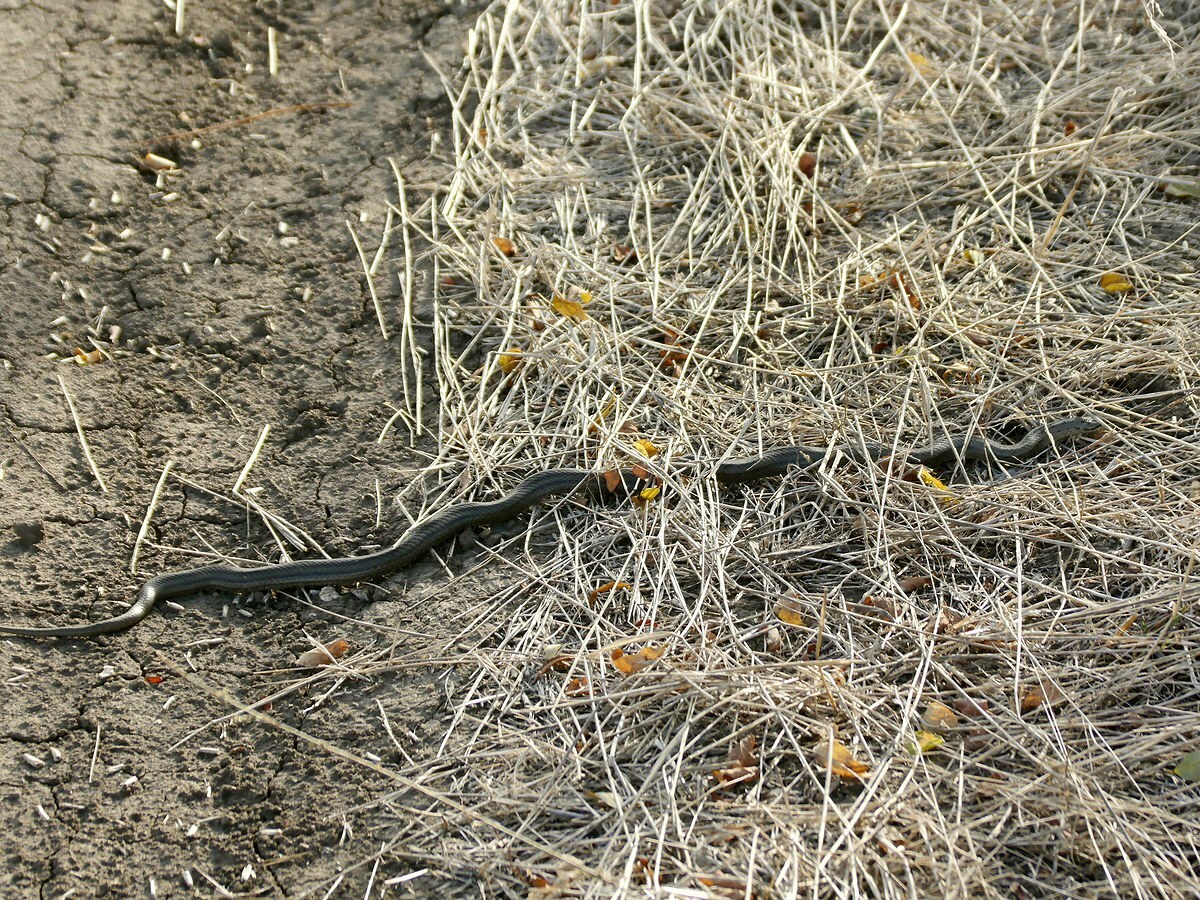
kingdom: Animalia
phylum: Chordata
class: Squamata
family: Colubridae
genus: Coronella
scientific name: Coronella austriaca
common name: Smooth snake
